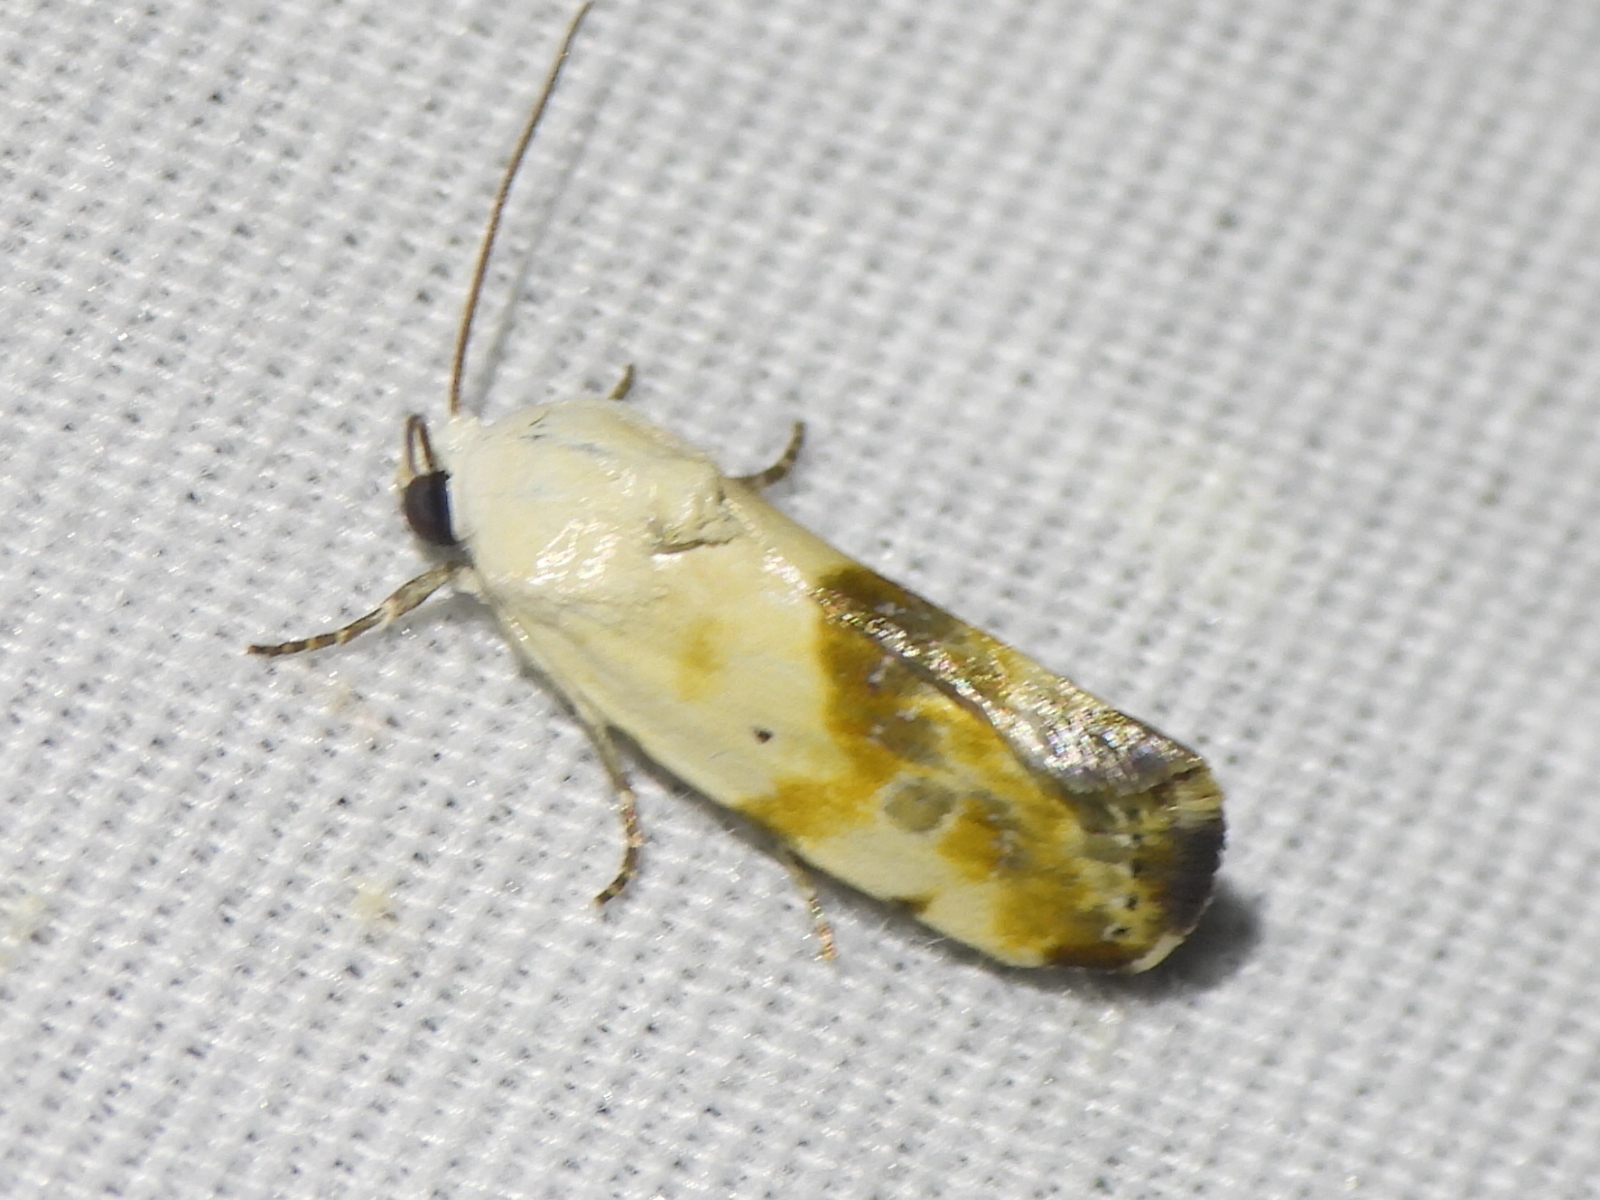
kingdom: Animalia
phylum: Arthropoda
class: Insecta
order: Lepidoptera
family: Noctuidae
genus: Acontia
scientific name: Acontia candefacta
